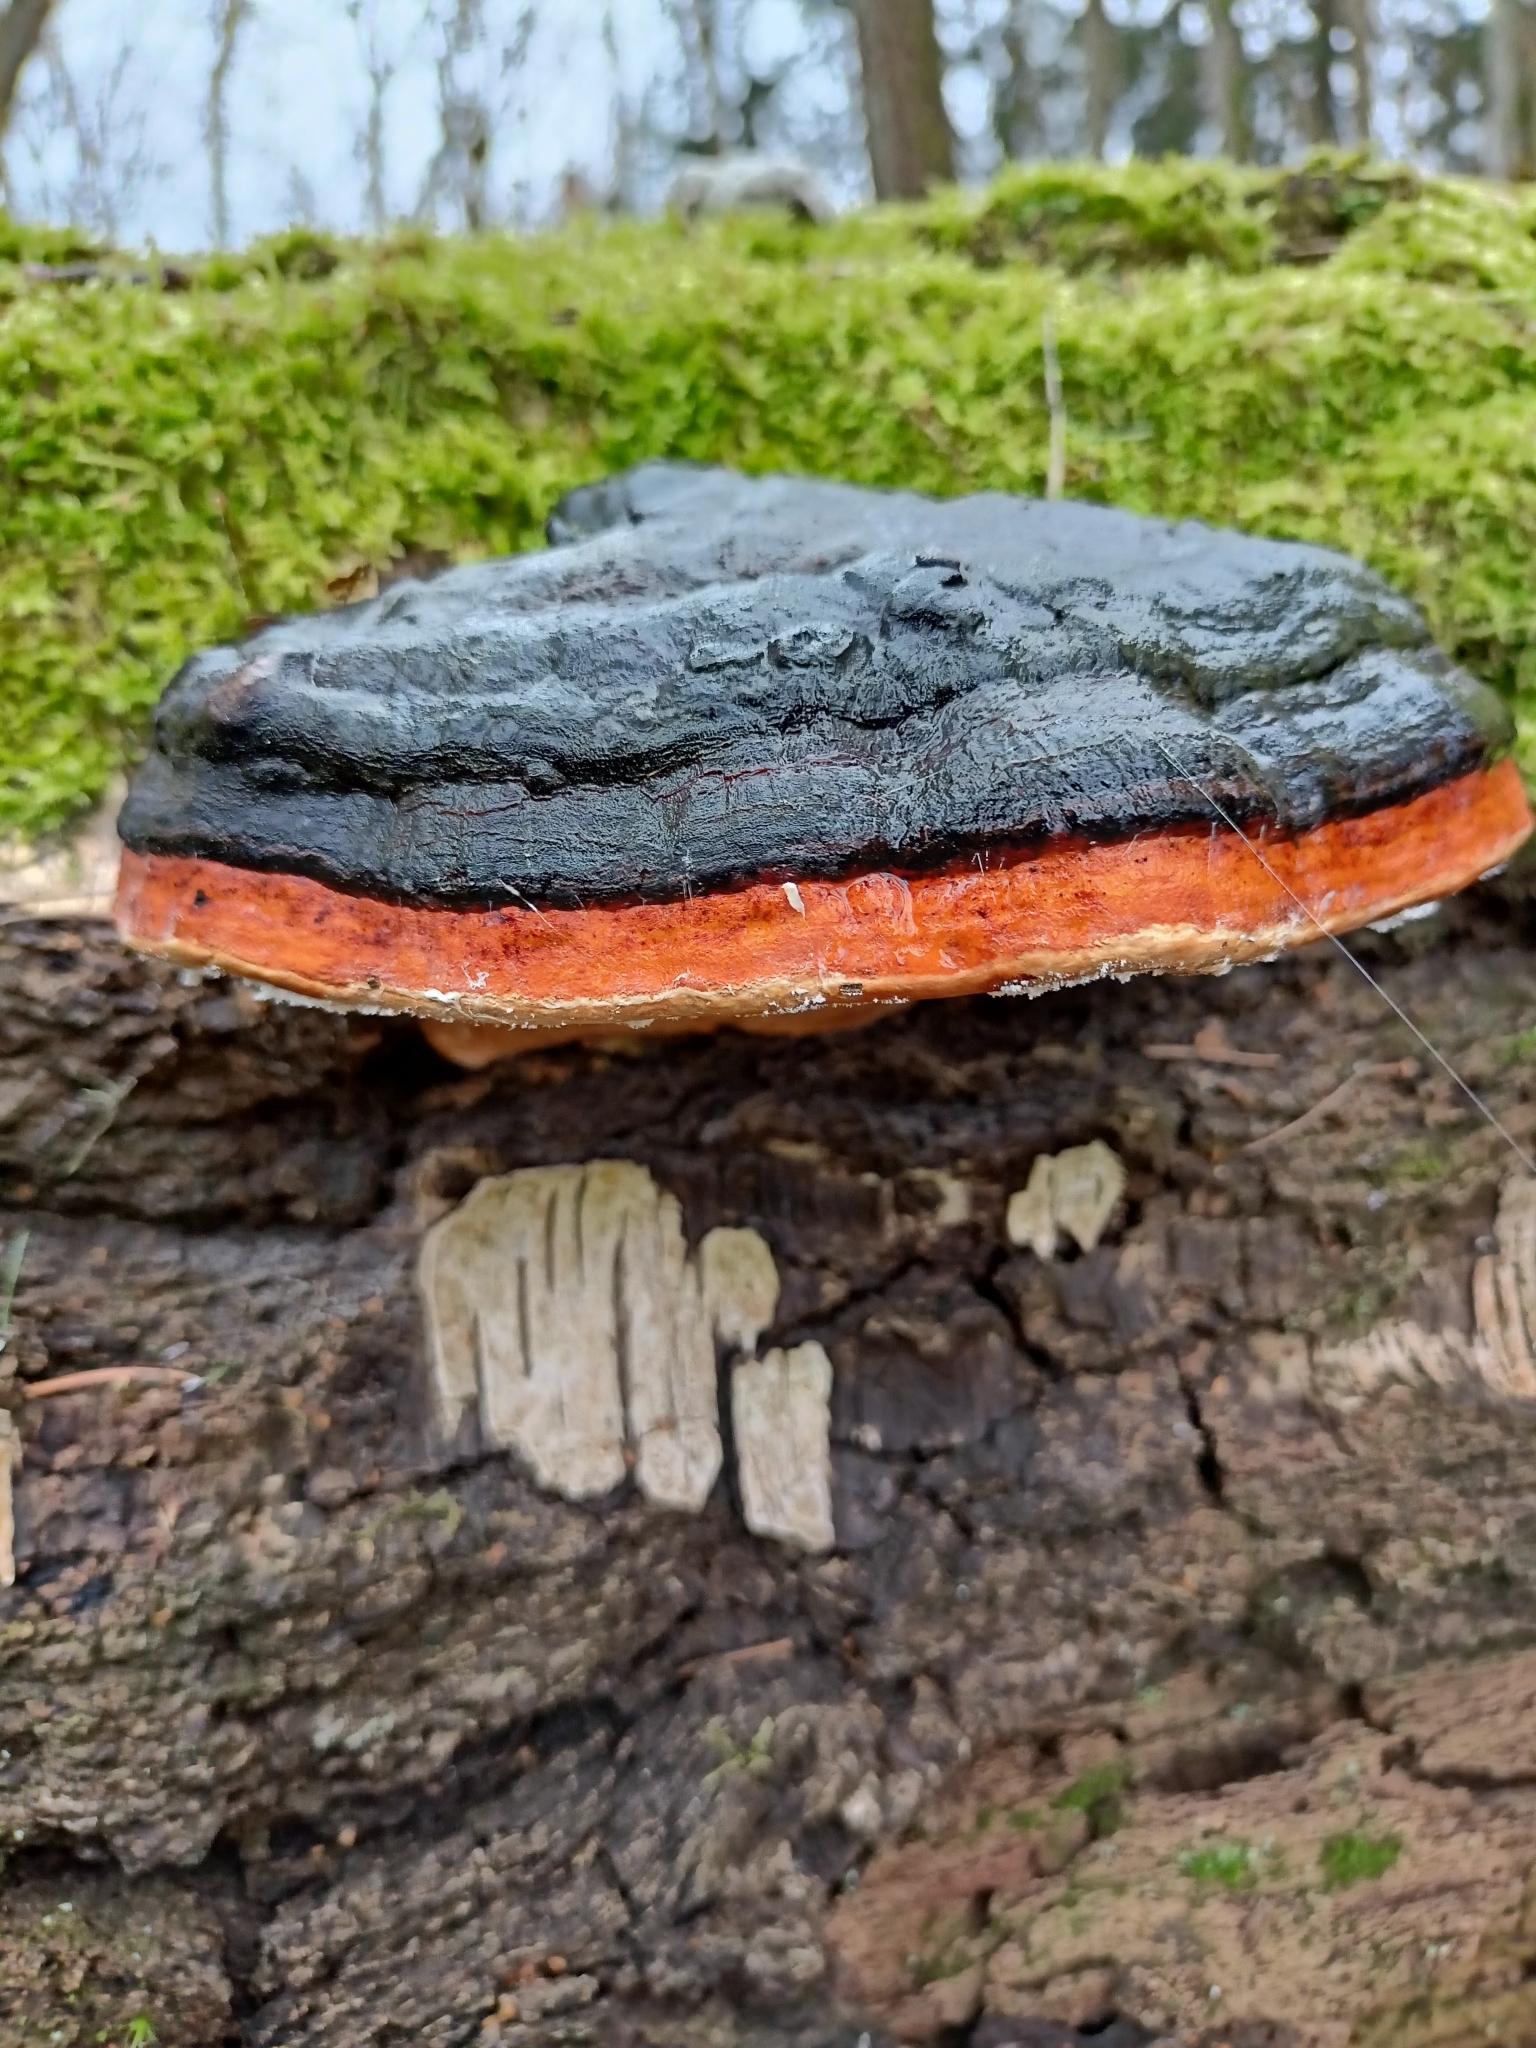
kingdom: Fungi
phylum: Basidiomycota
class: Agaricomycetes
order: Polyporales
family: Fomitopsidaceae
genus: Fomitopsis
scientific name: Fomitopsis pinicola
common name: Red-belted bracket
